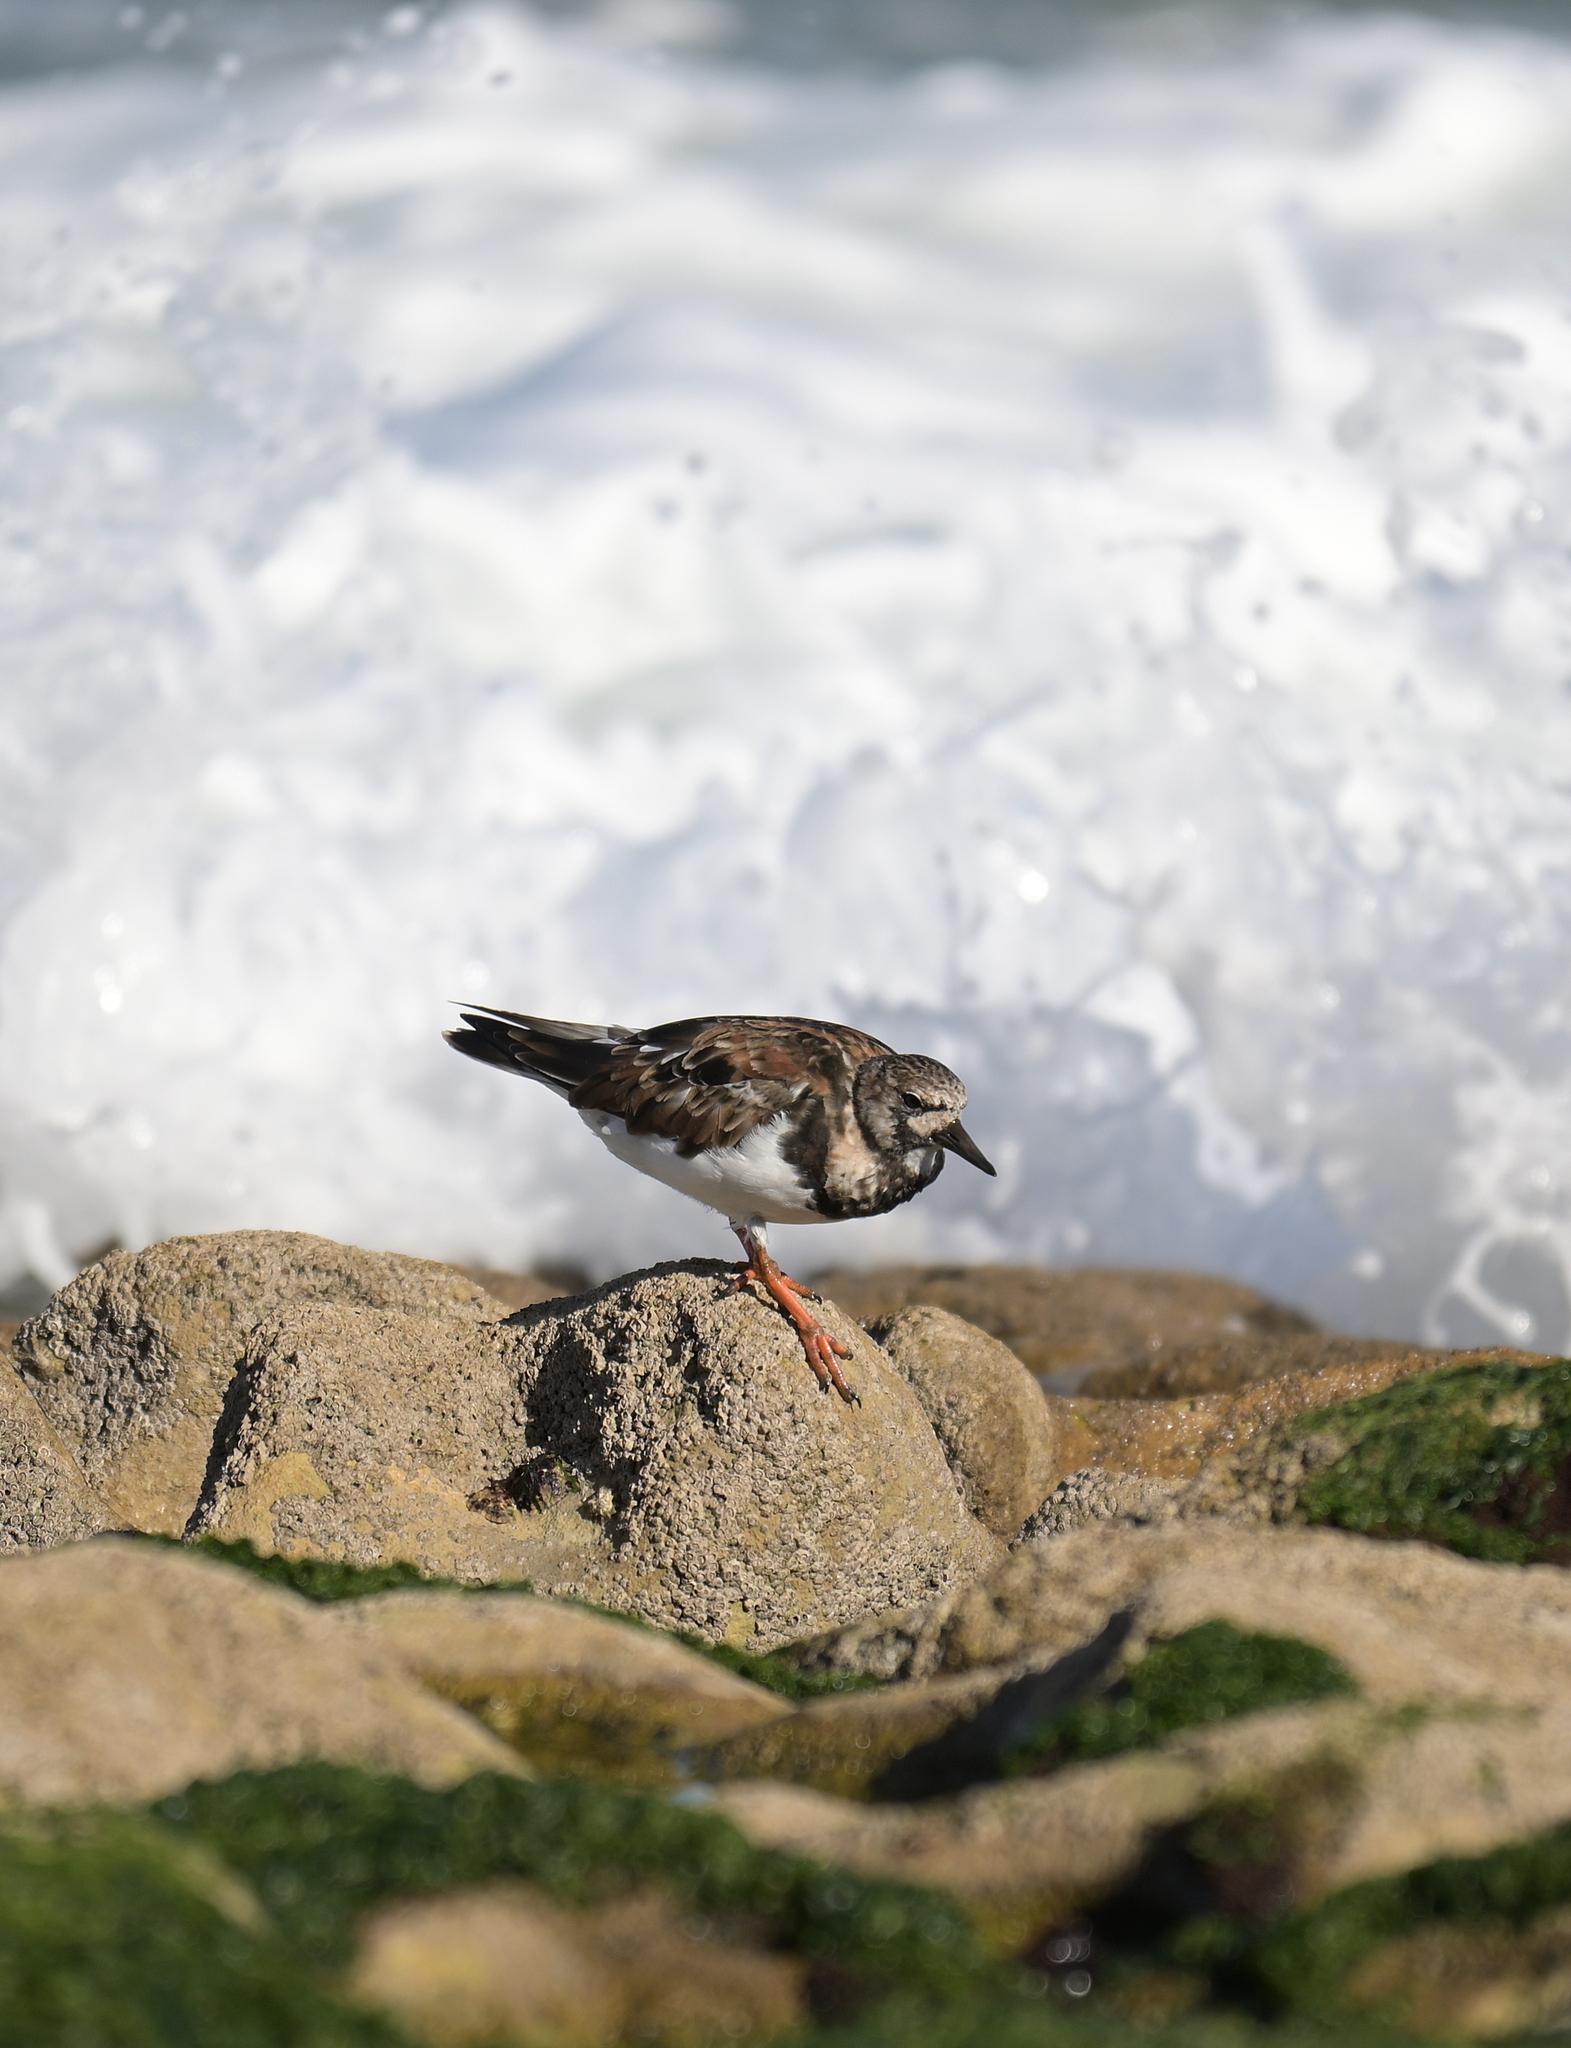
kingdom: Animalia
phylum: Chordata
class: Aves
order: Charadriiformes
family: Scolopacidae
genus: Arenaria
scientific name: Arenaria interpres
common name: Ruddy turnstone
